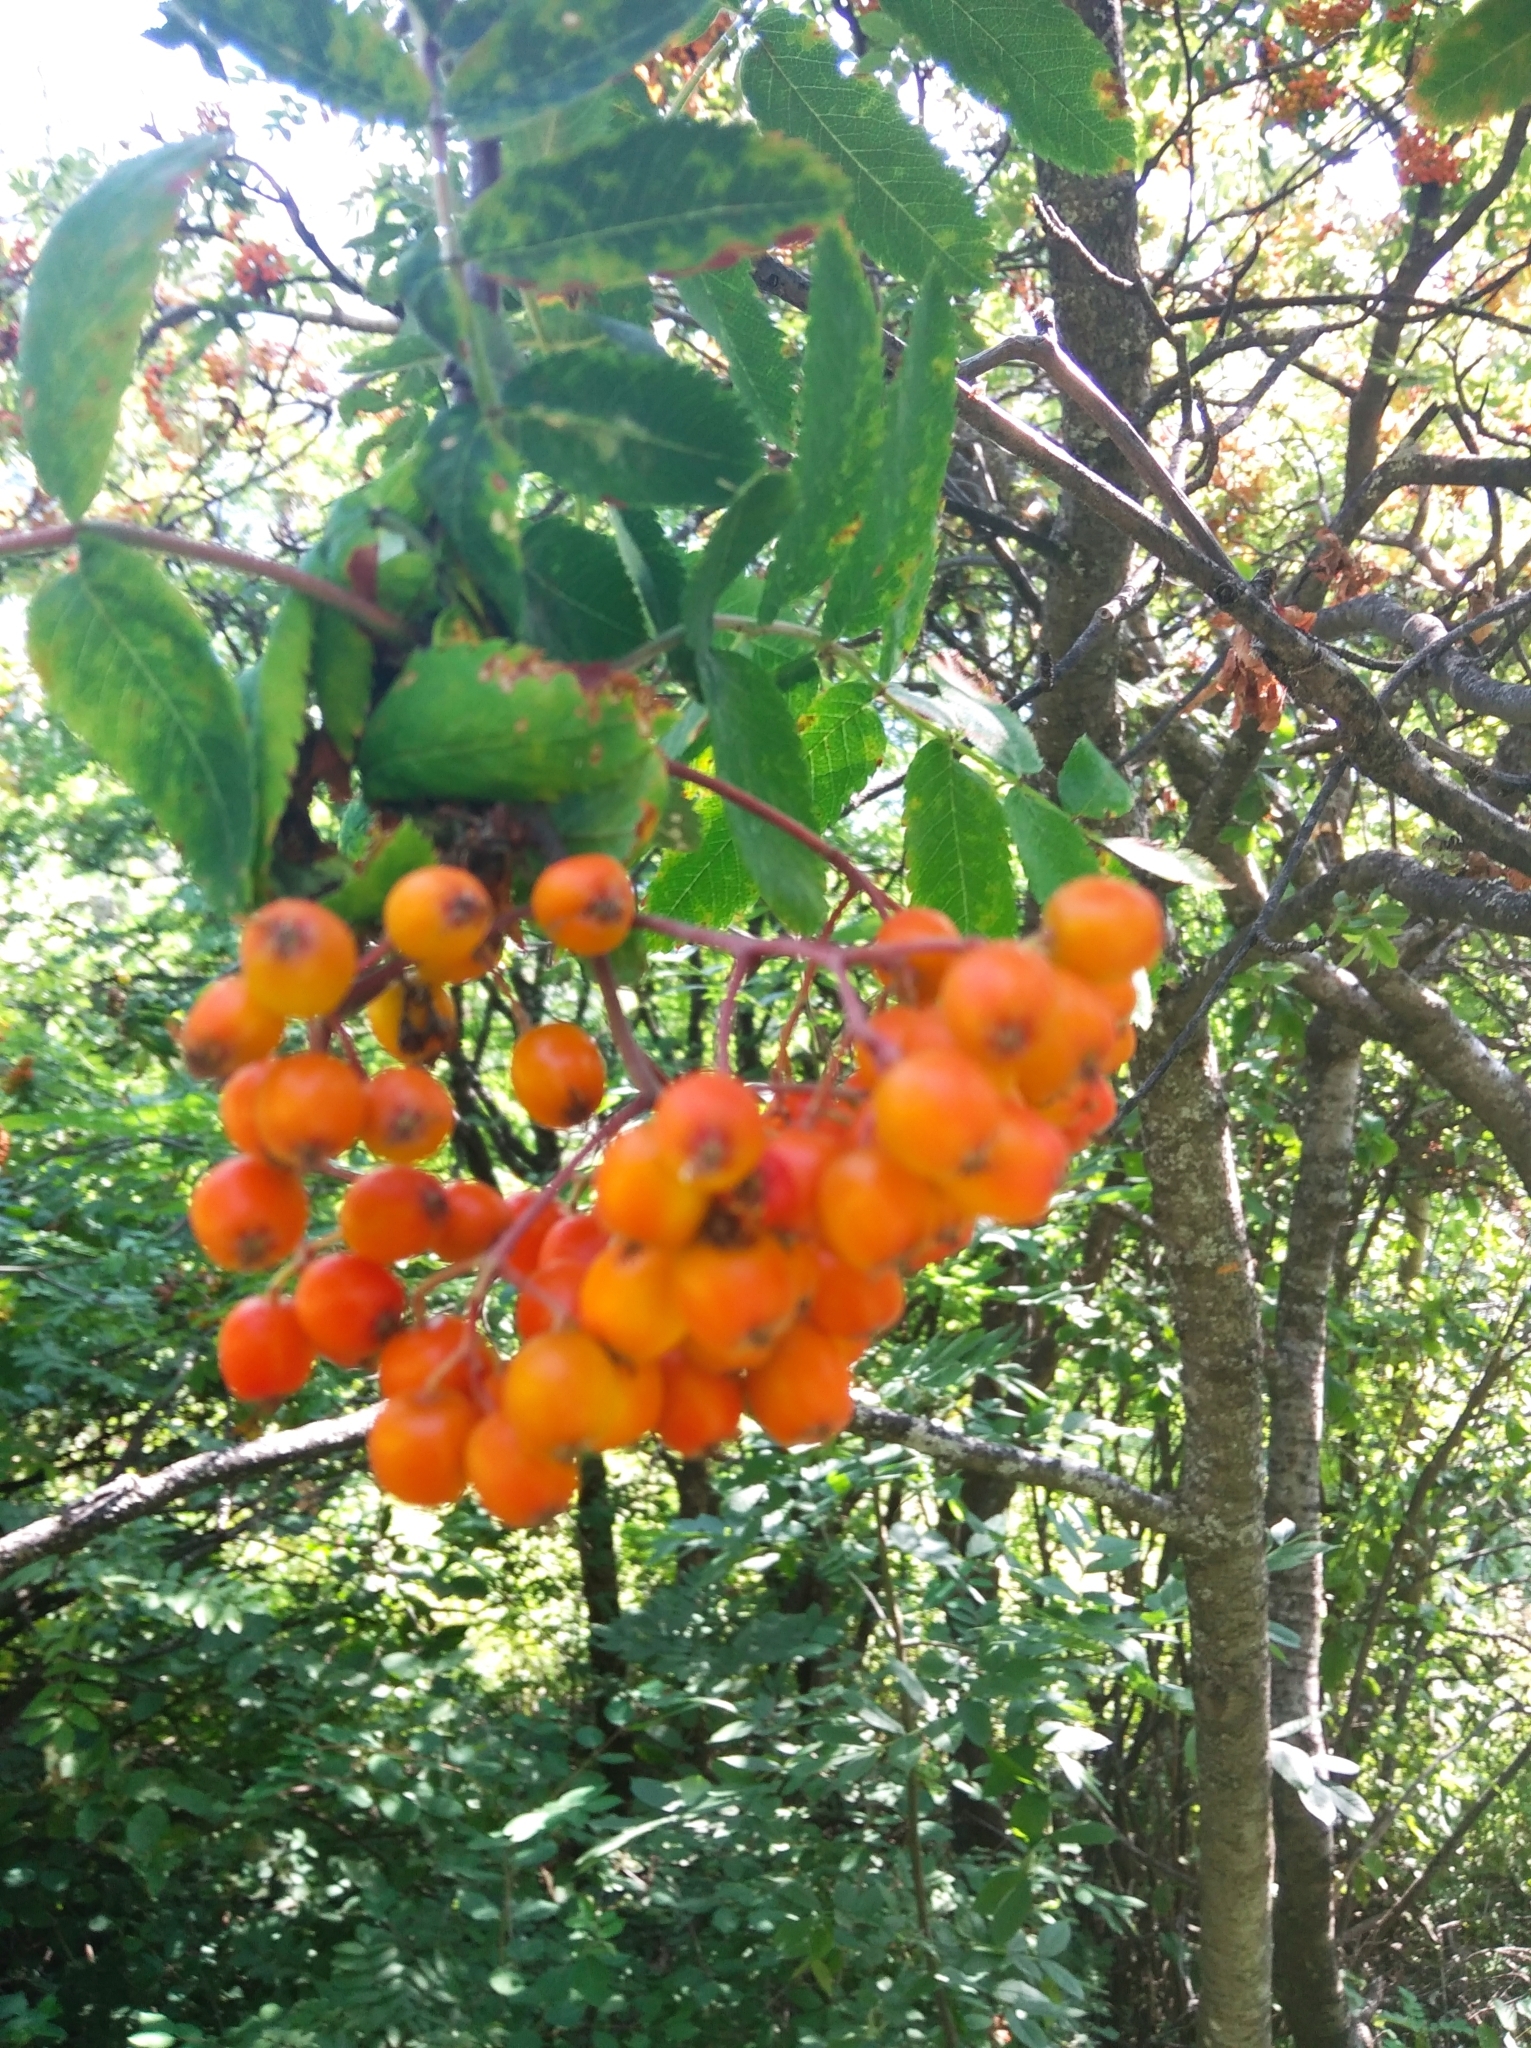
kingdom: Plantae
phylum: Tracheophyta
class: Magnoliopsida
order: Rosales
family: Rosaceae
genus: Sorbus
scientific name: Sorbus aucuparia
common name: Rowan
